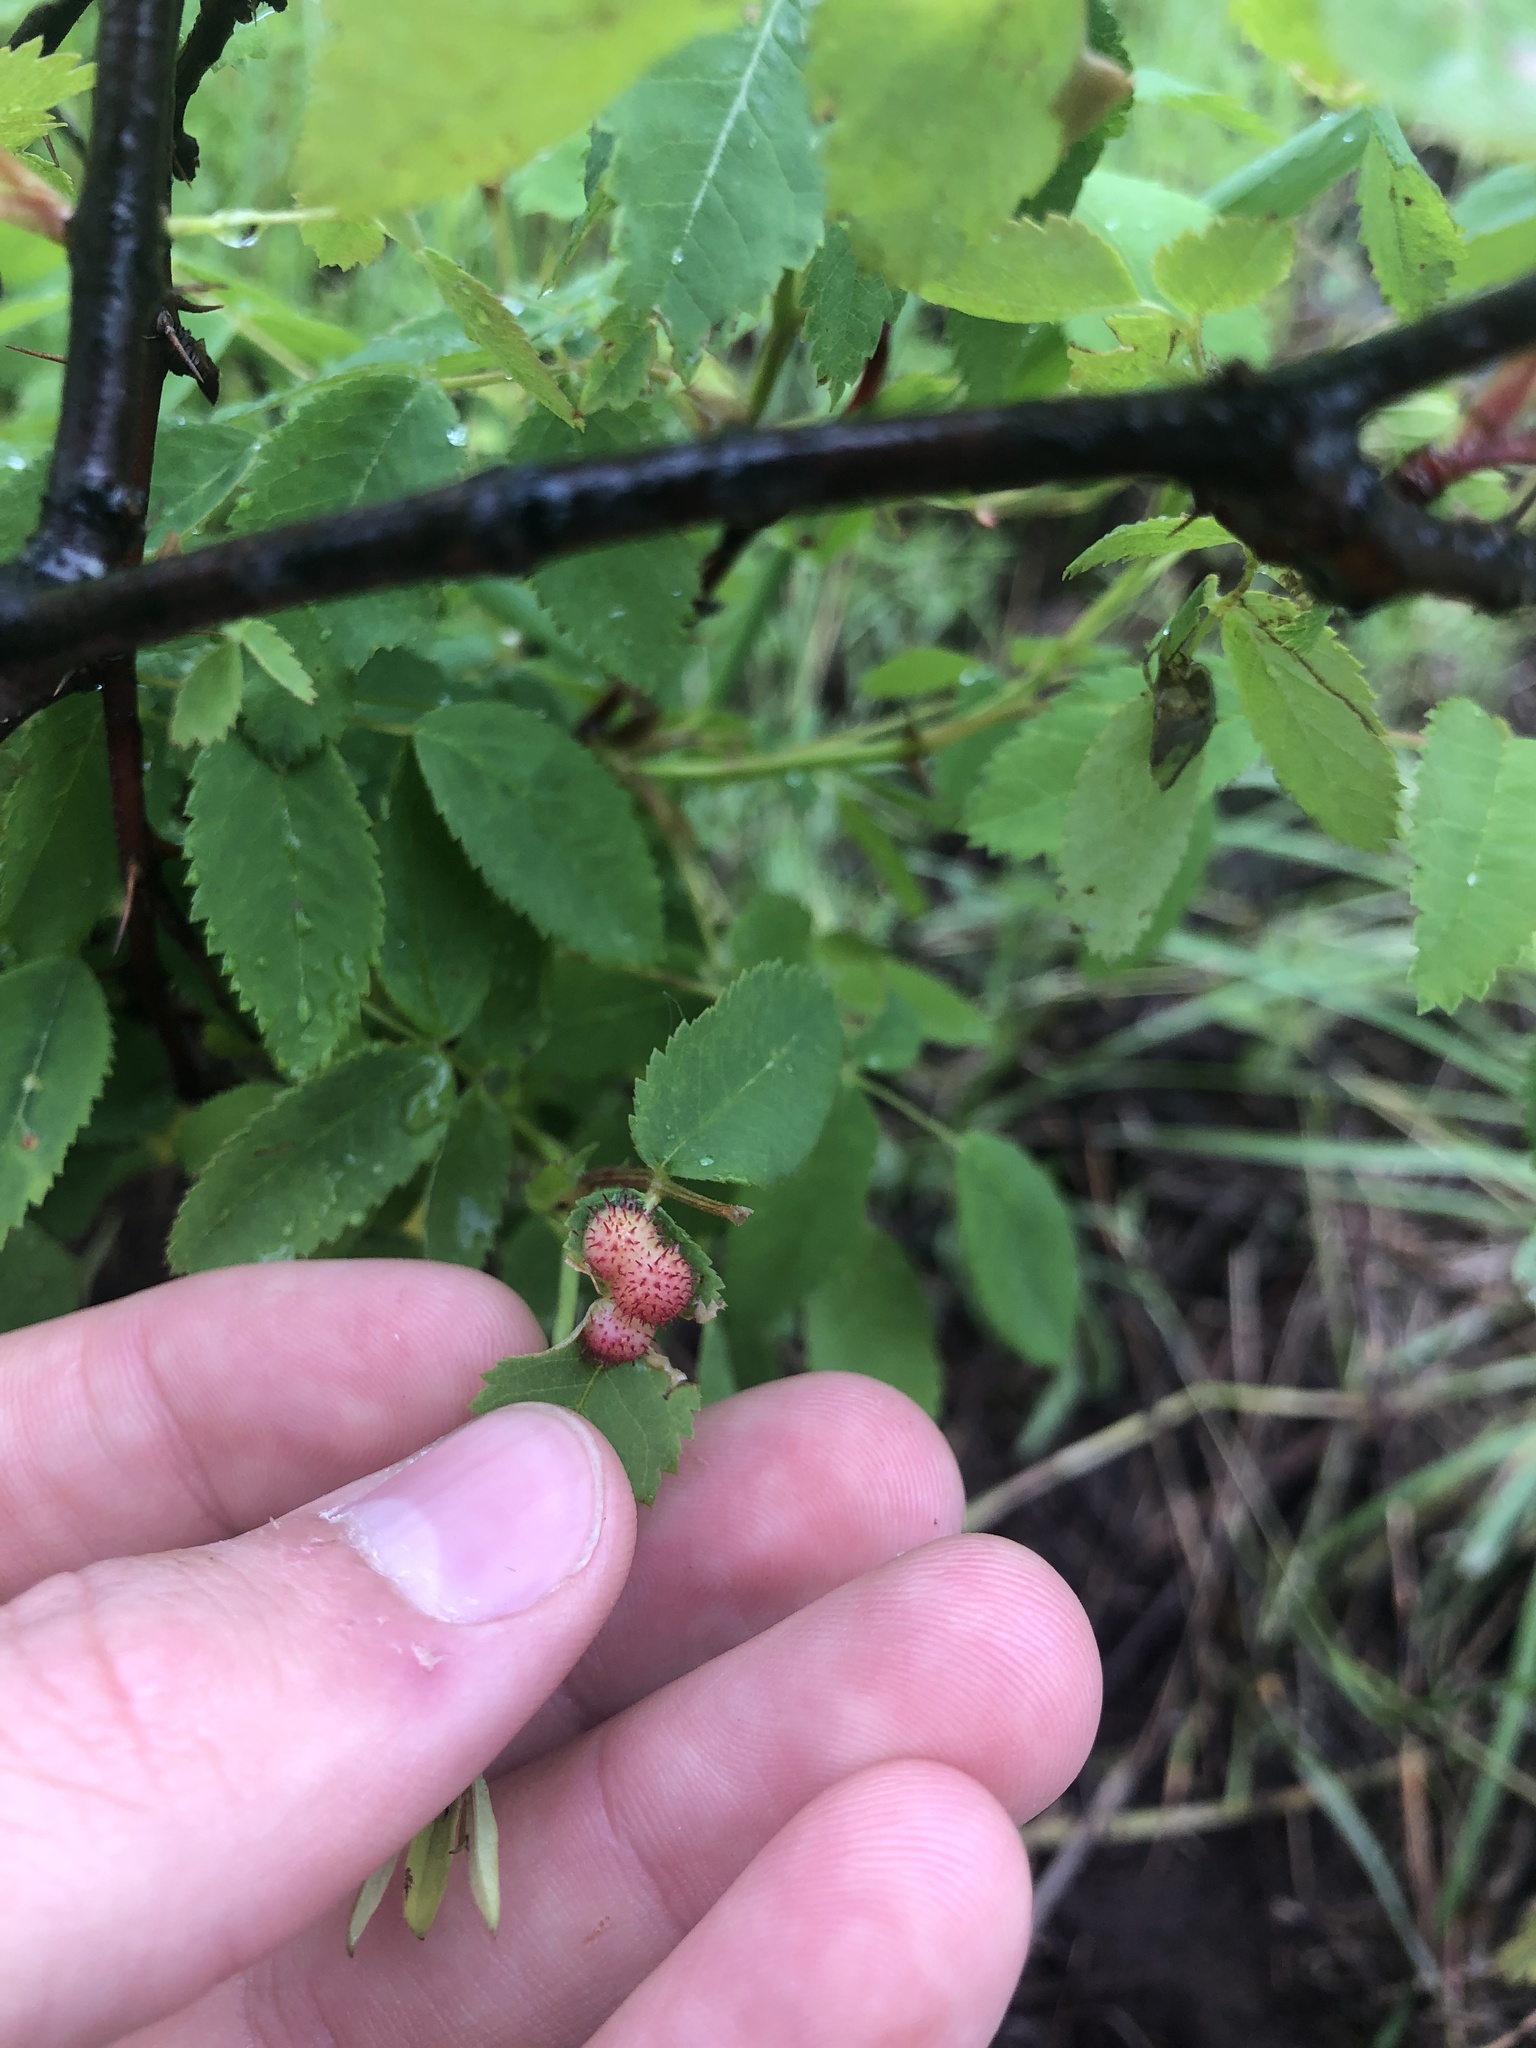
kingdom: Animalia
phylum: Arthropoda
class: Insecta
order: Hymenoptera
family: Cynipidae
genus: Diplolepis
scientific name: Diplolepis polita
